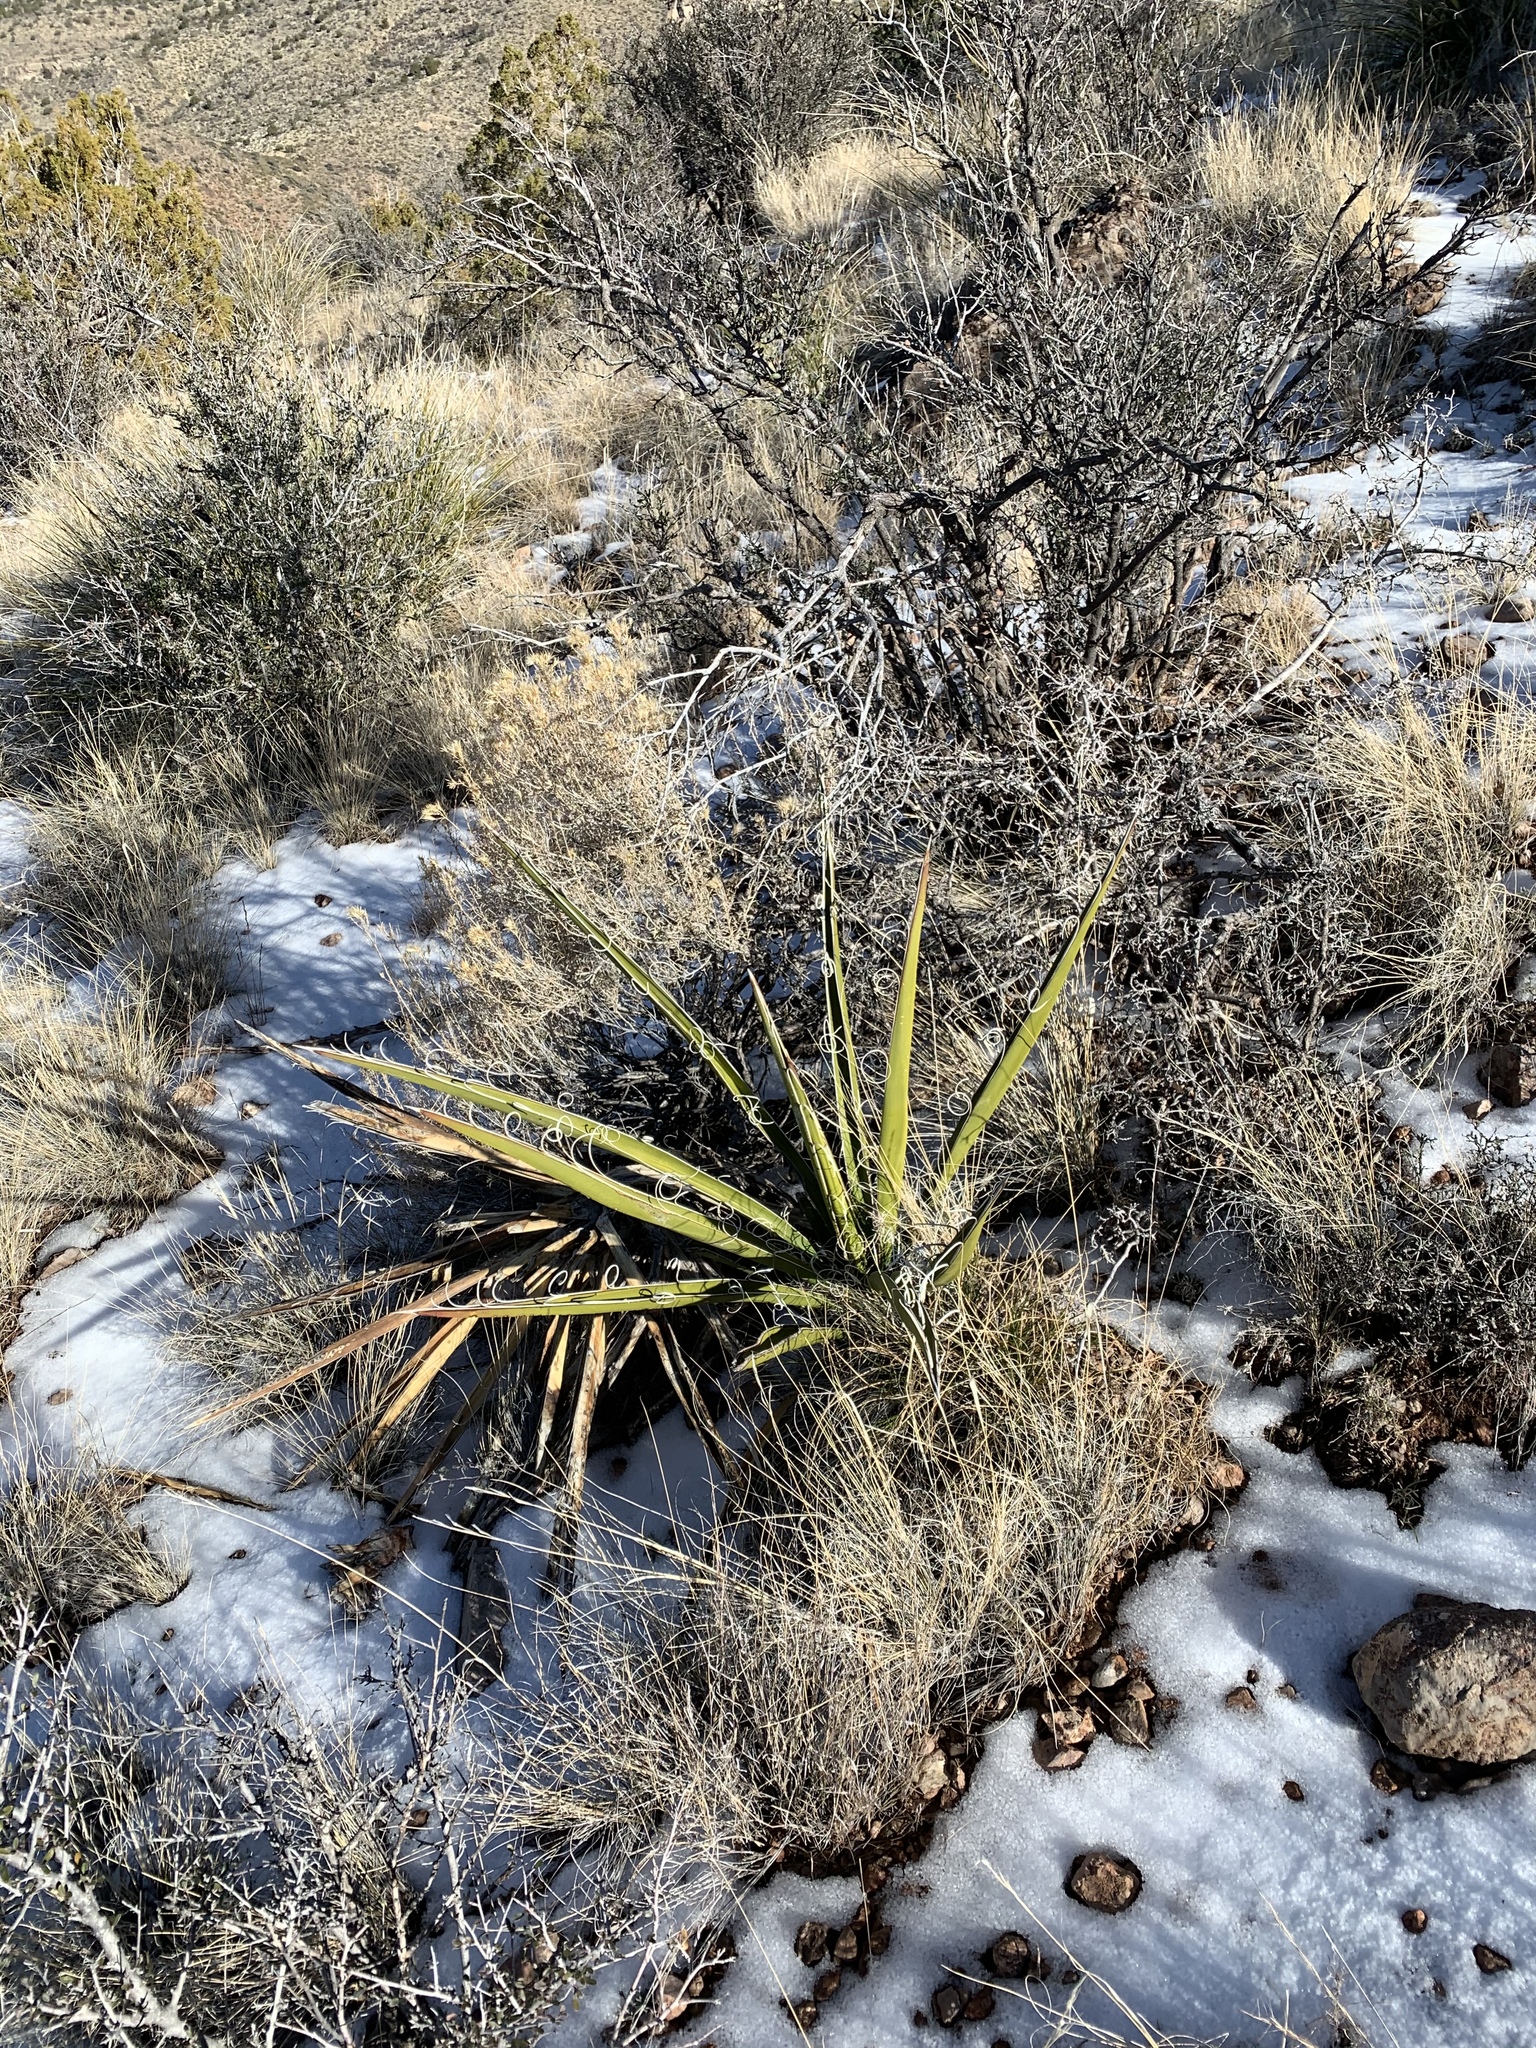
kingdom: Plantae
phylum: Tracheophyta
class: Liliopsida
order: Asparagales
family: Asparagaceae
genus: Yucca
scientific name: Yucca baccata
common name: Banana yucca
